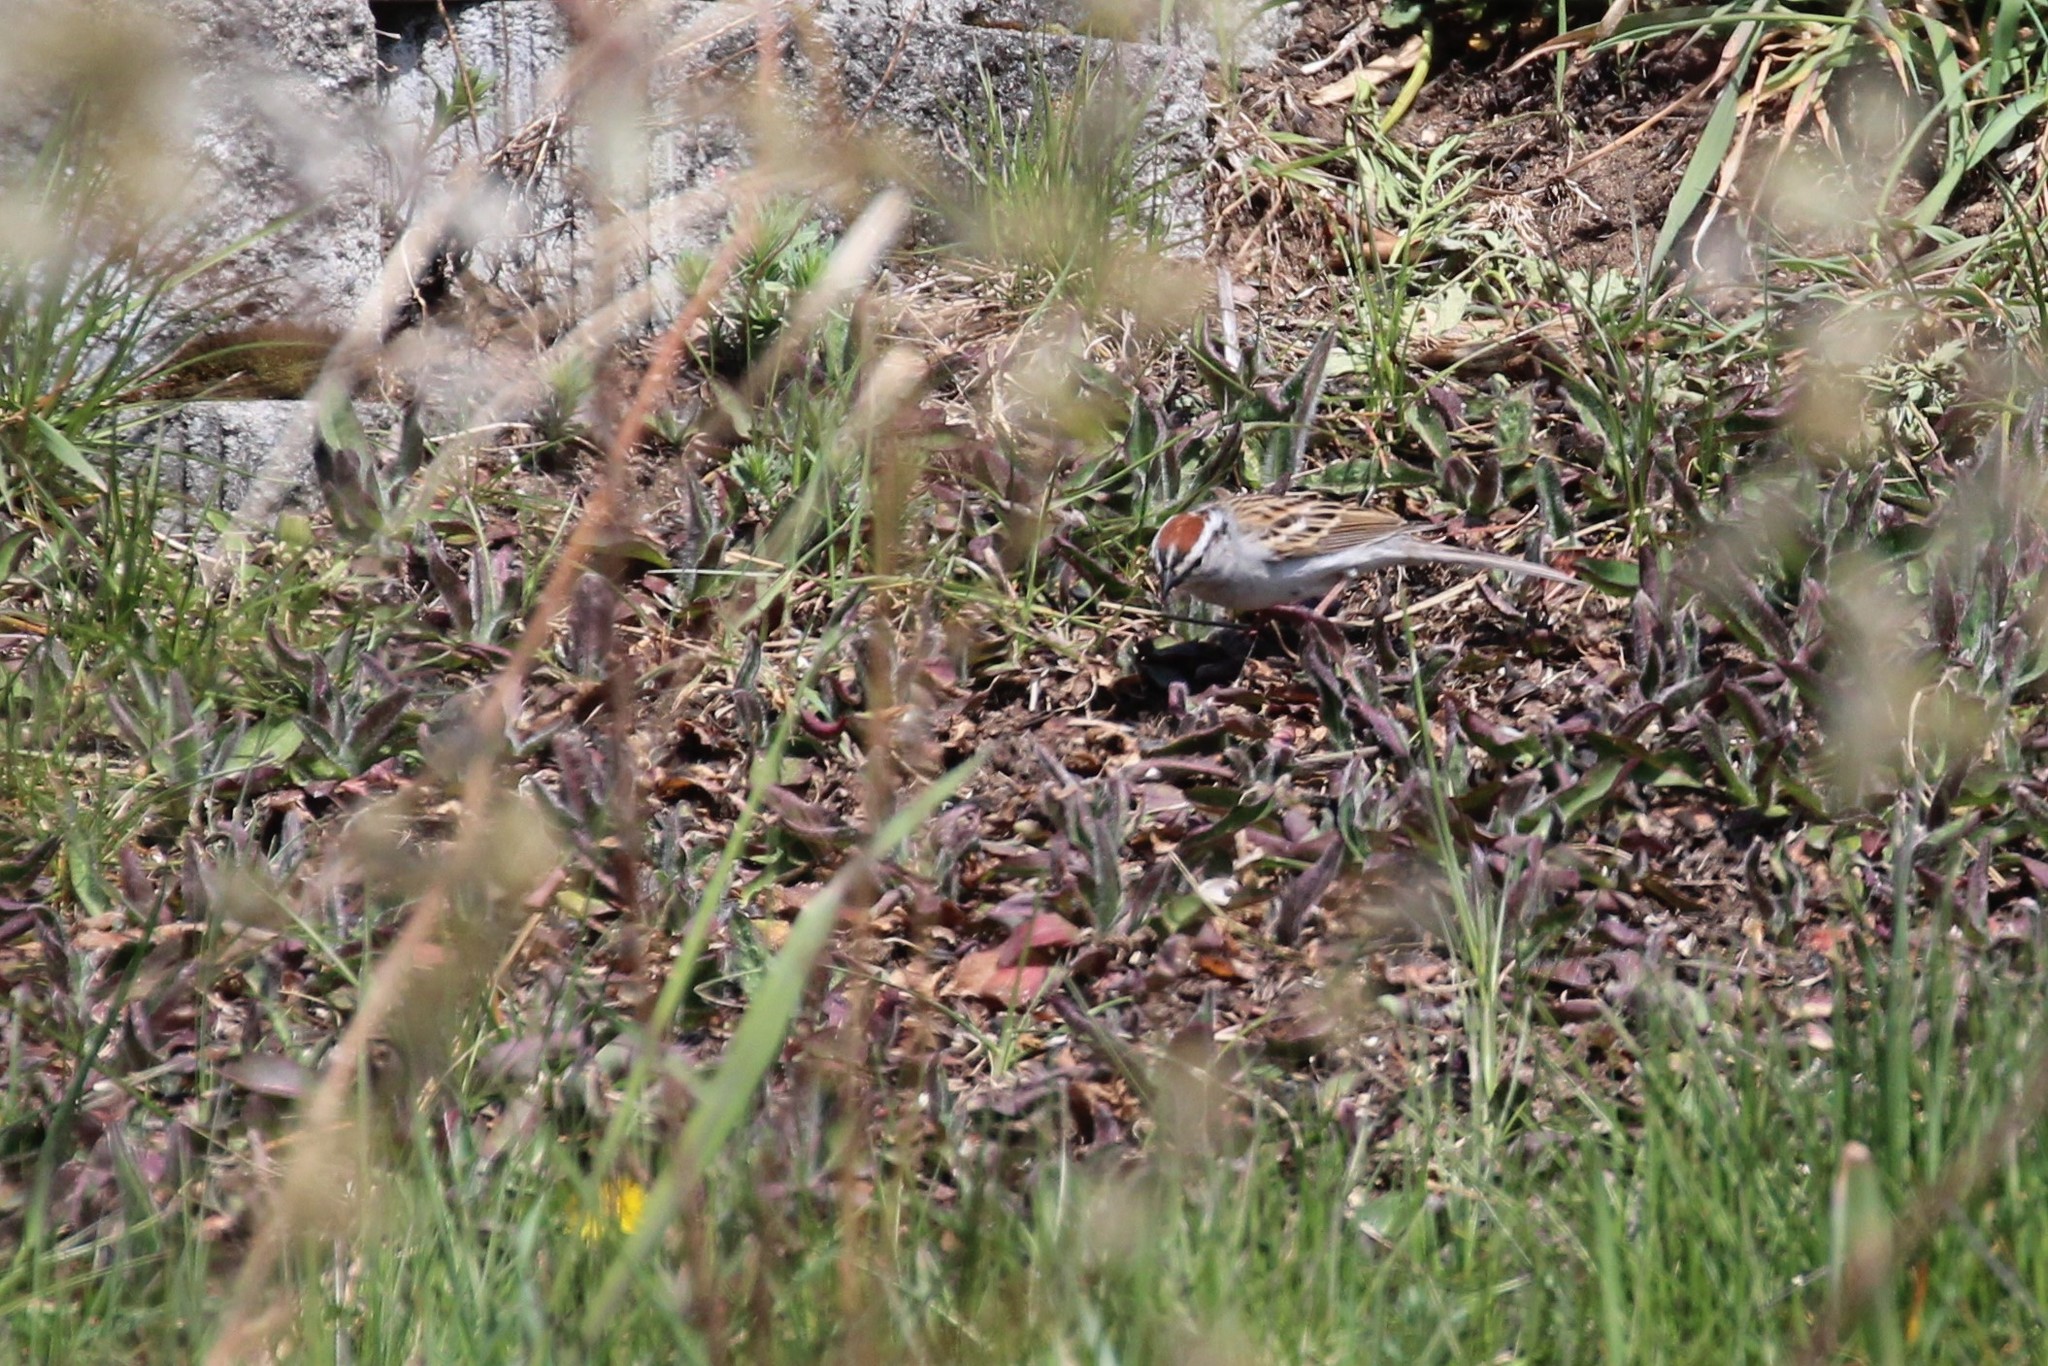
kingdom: Animalia
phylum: Chordata
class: Aves
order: Passeriformes
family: Passerellidae
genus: Spizella
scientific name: Spizella passerina
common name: Chipping sparrow
